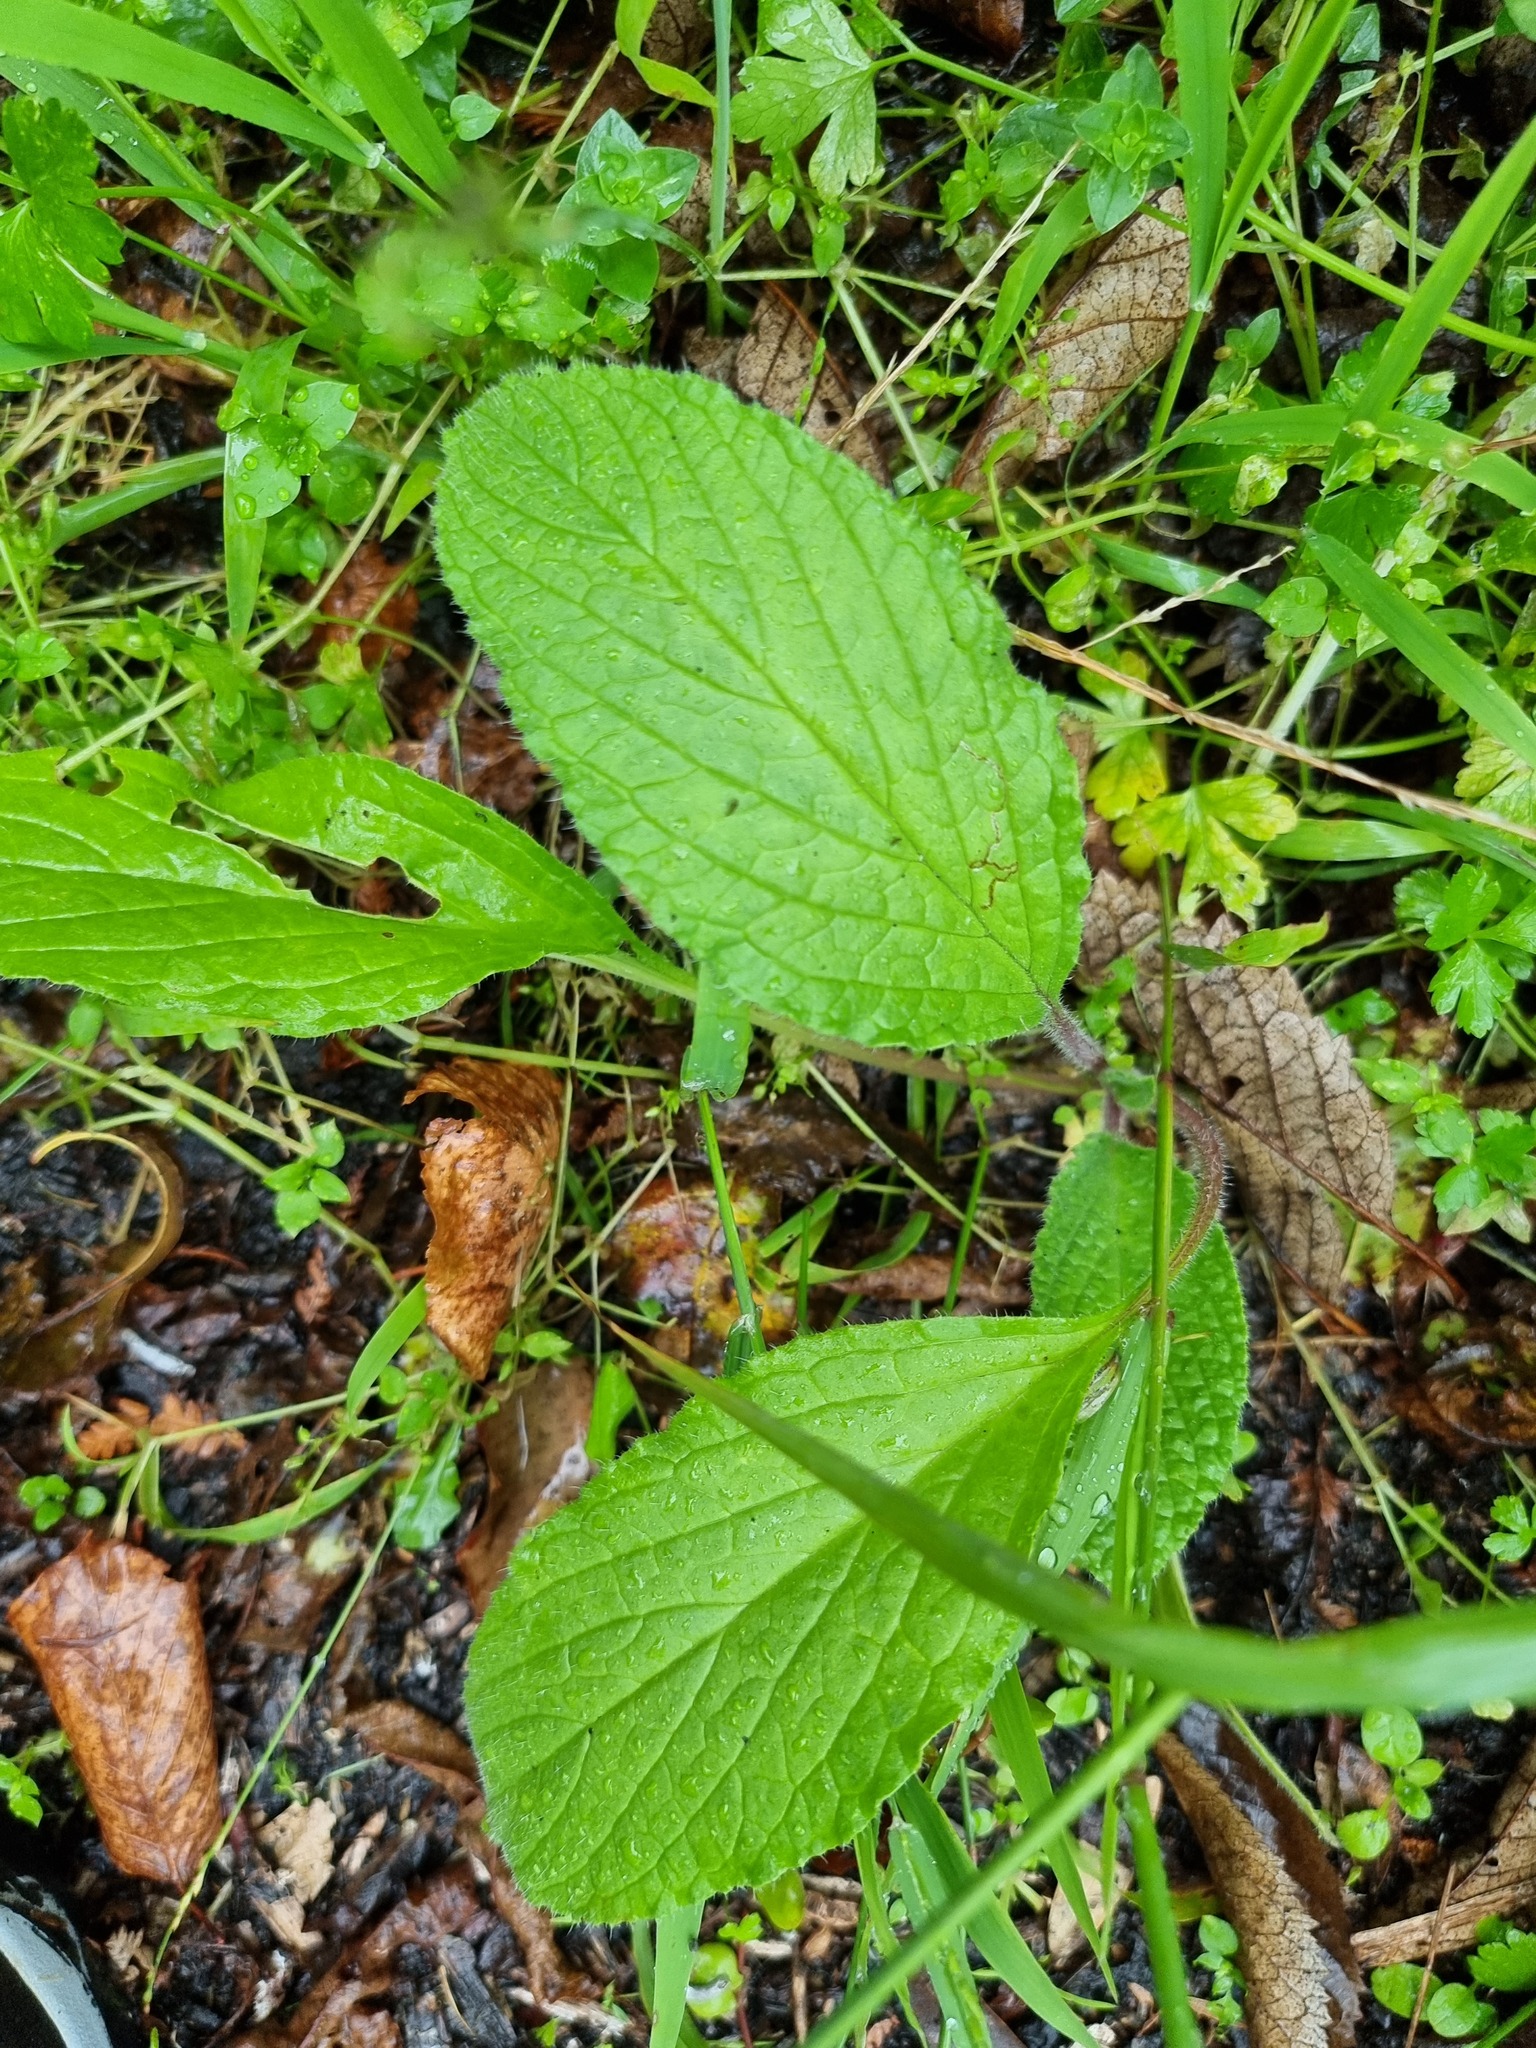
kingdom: Plantae
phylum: Tracheophyta
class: Magnoliopsida
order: Boraginales
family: Boraginaceae
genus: Borago
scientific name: Borago officinalis
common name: Borage
